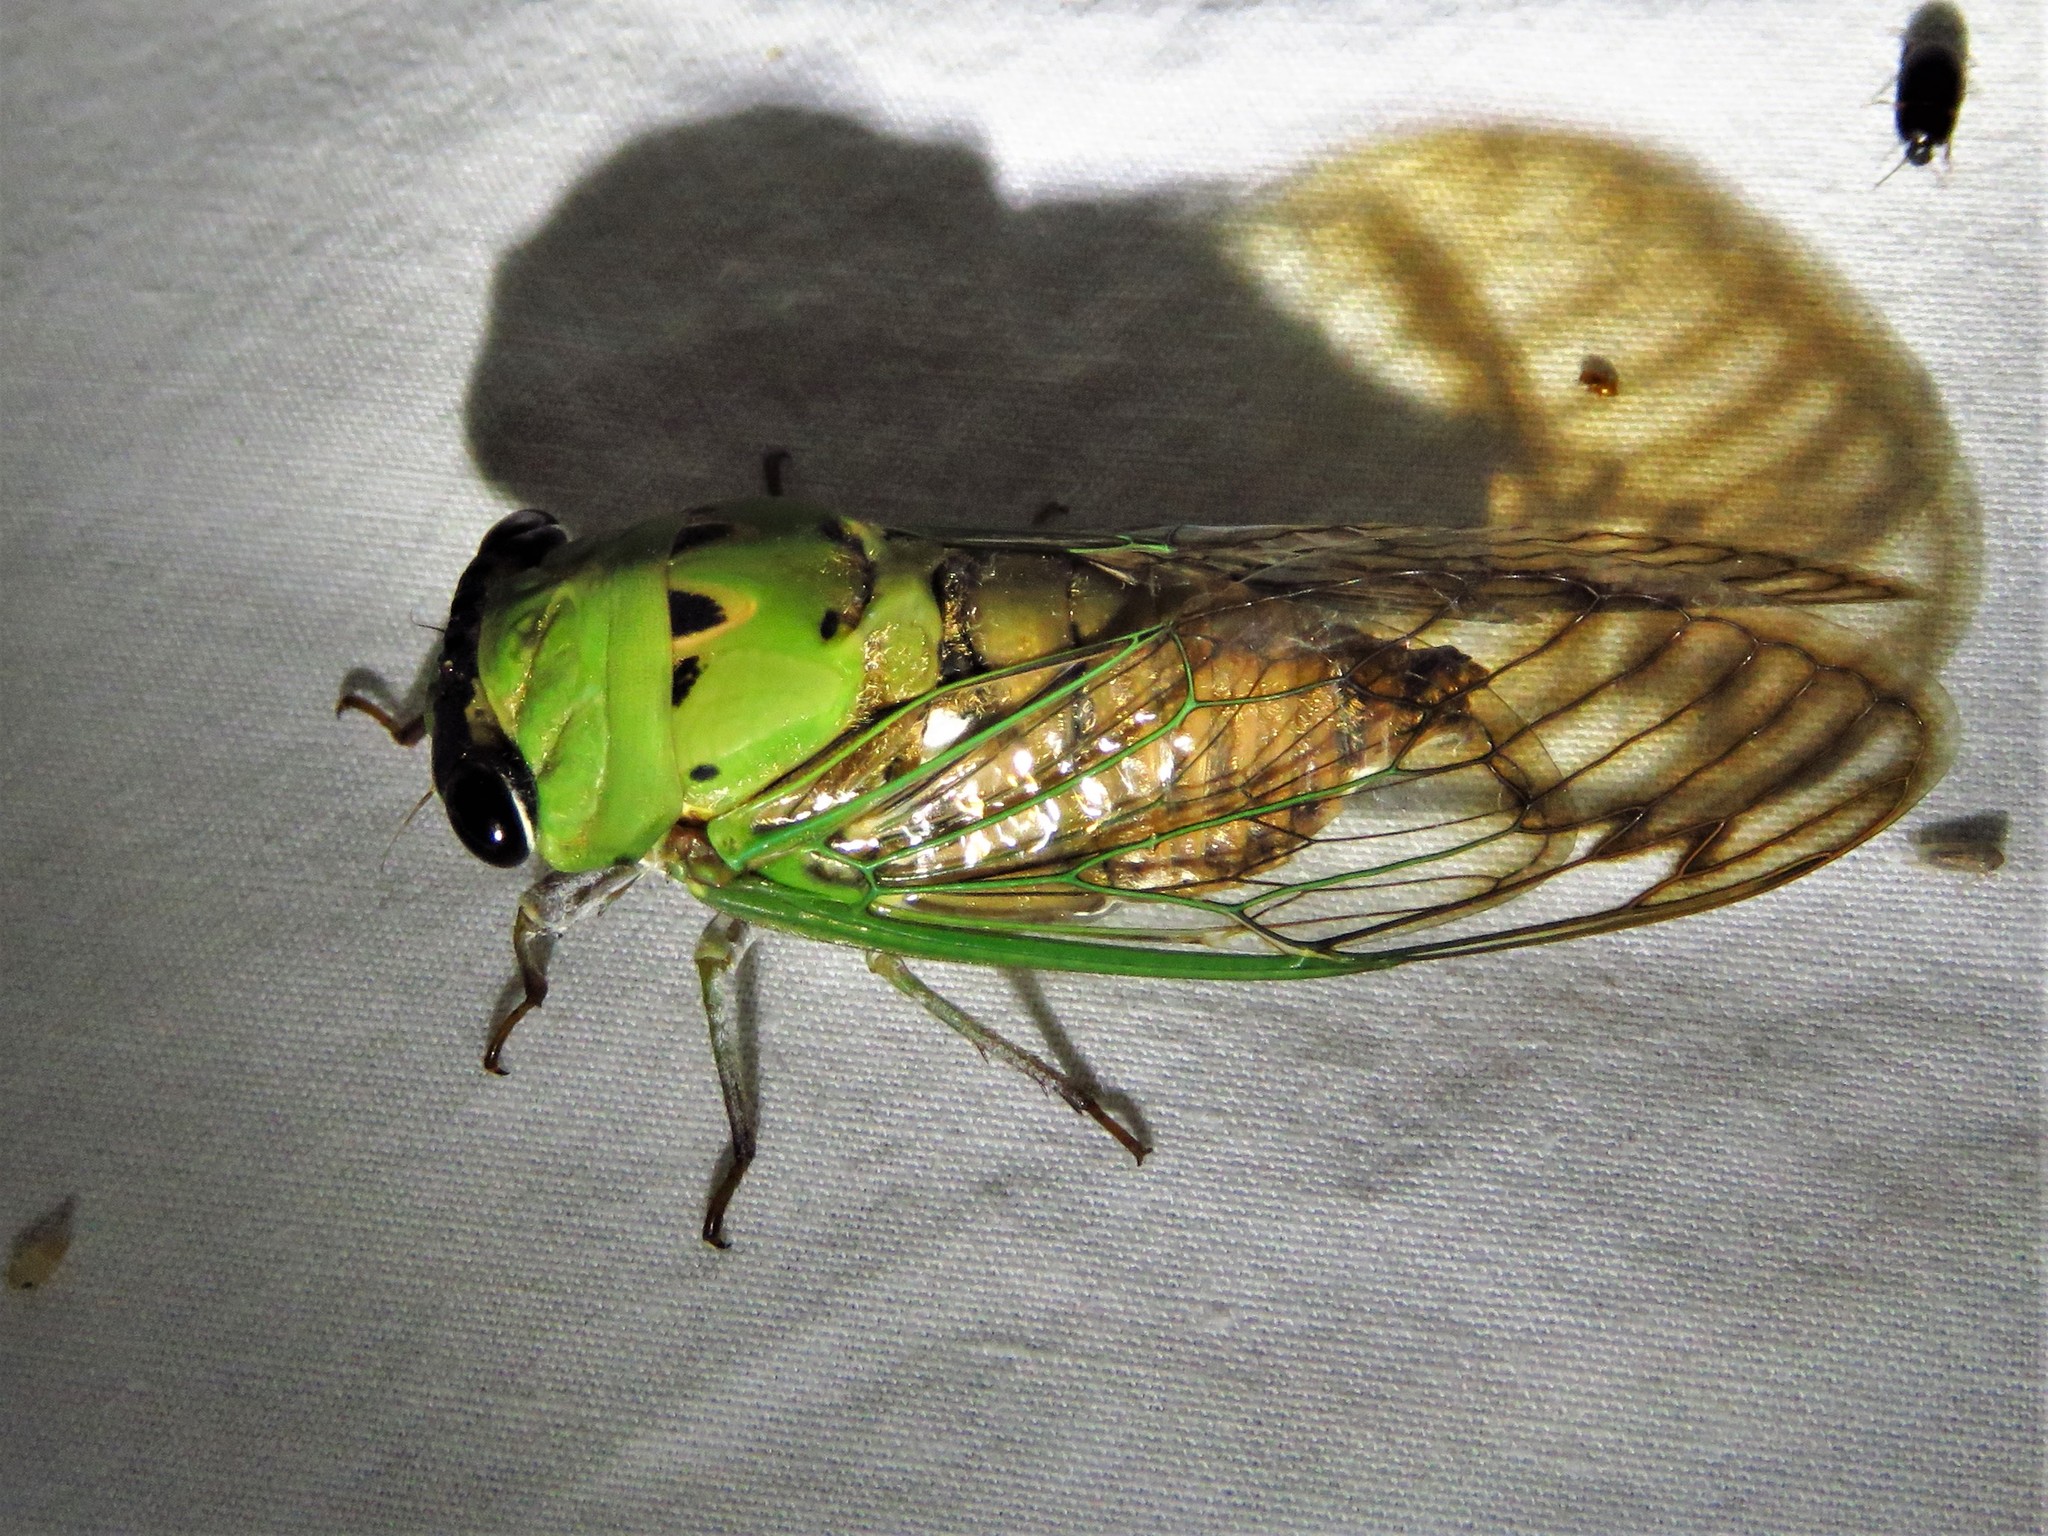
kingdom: Animalia
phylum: Arthropoda
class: Insecta
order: Hemiptera
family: Cicadidae
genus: Neotibicen
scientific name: Neotibicen superbus
